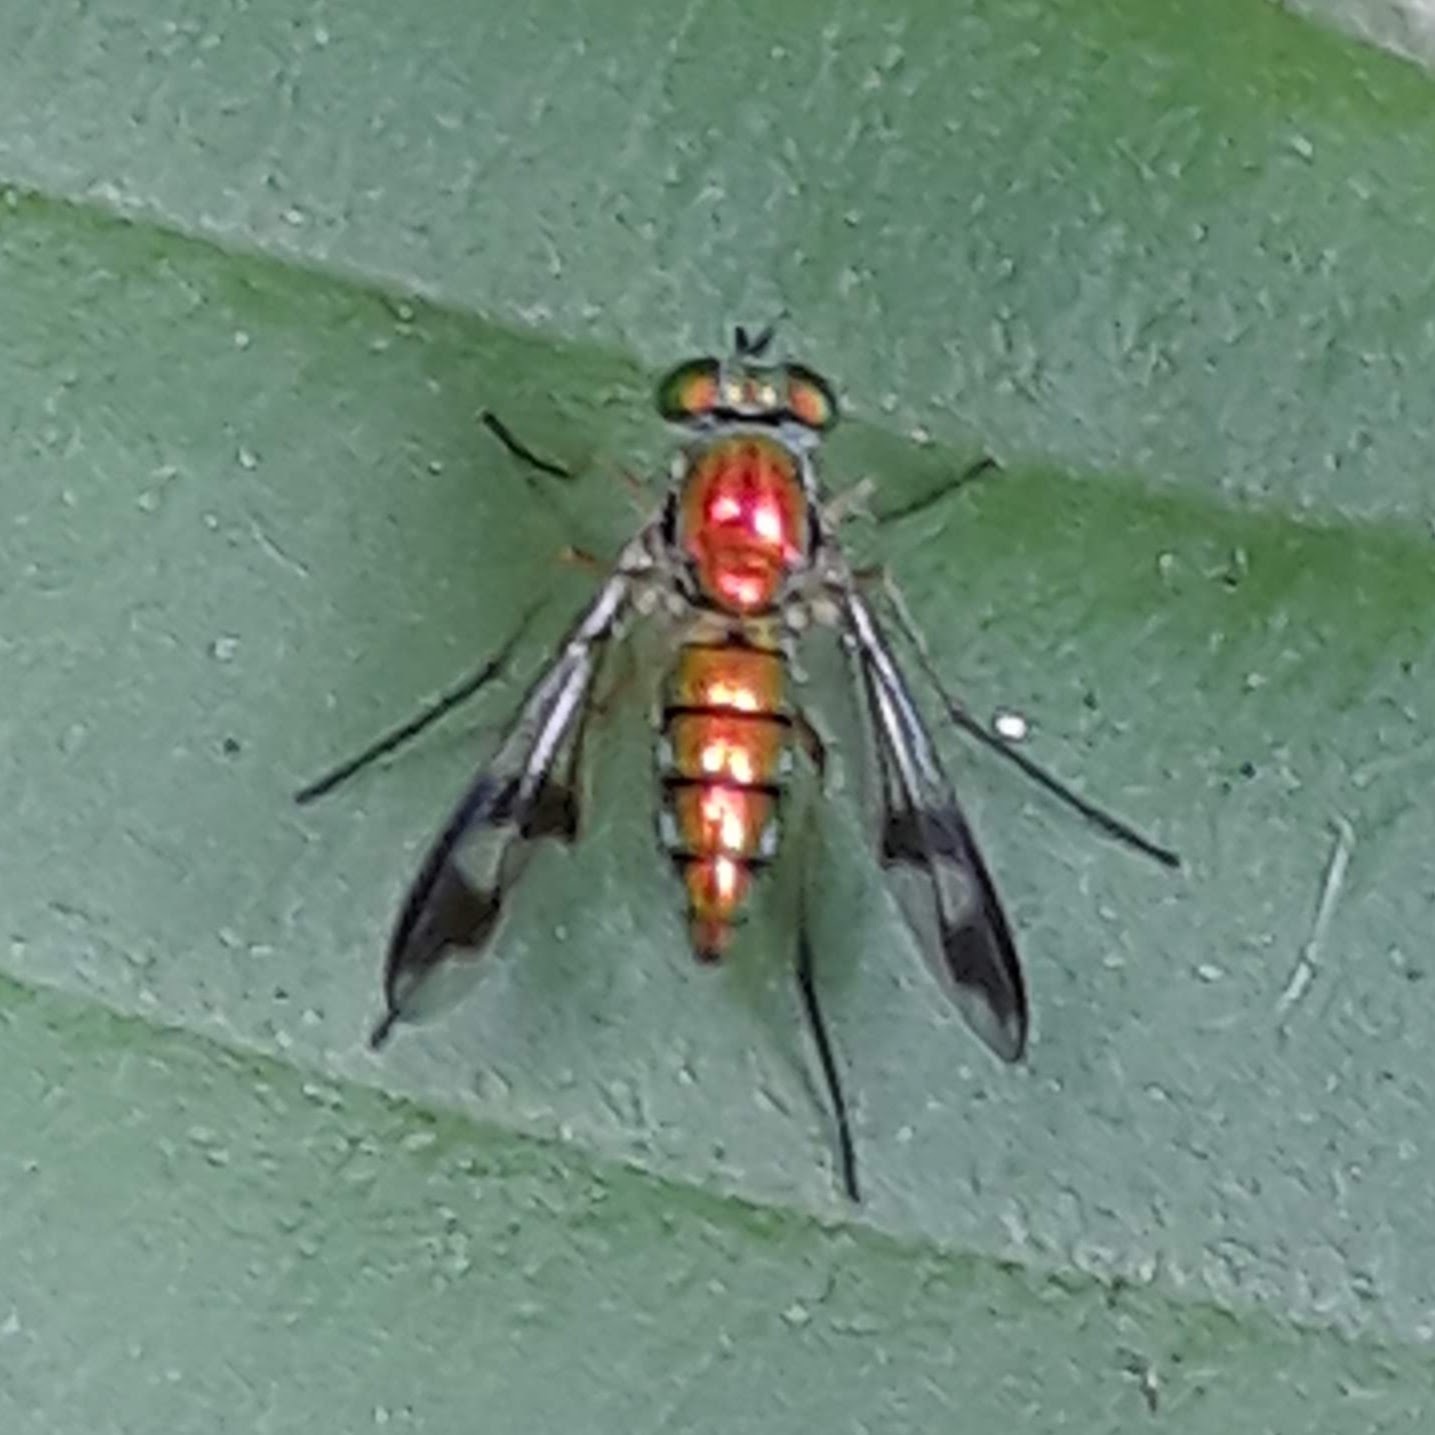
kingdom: Animalia
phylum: Arthropoda
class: Insecta
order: Diptera
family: Dolichopodidae
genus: Condylostylus
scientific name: Condylostylus
